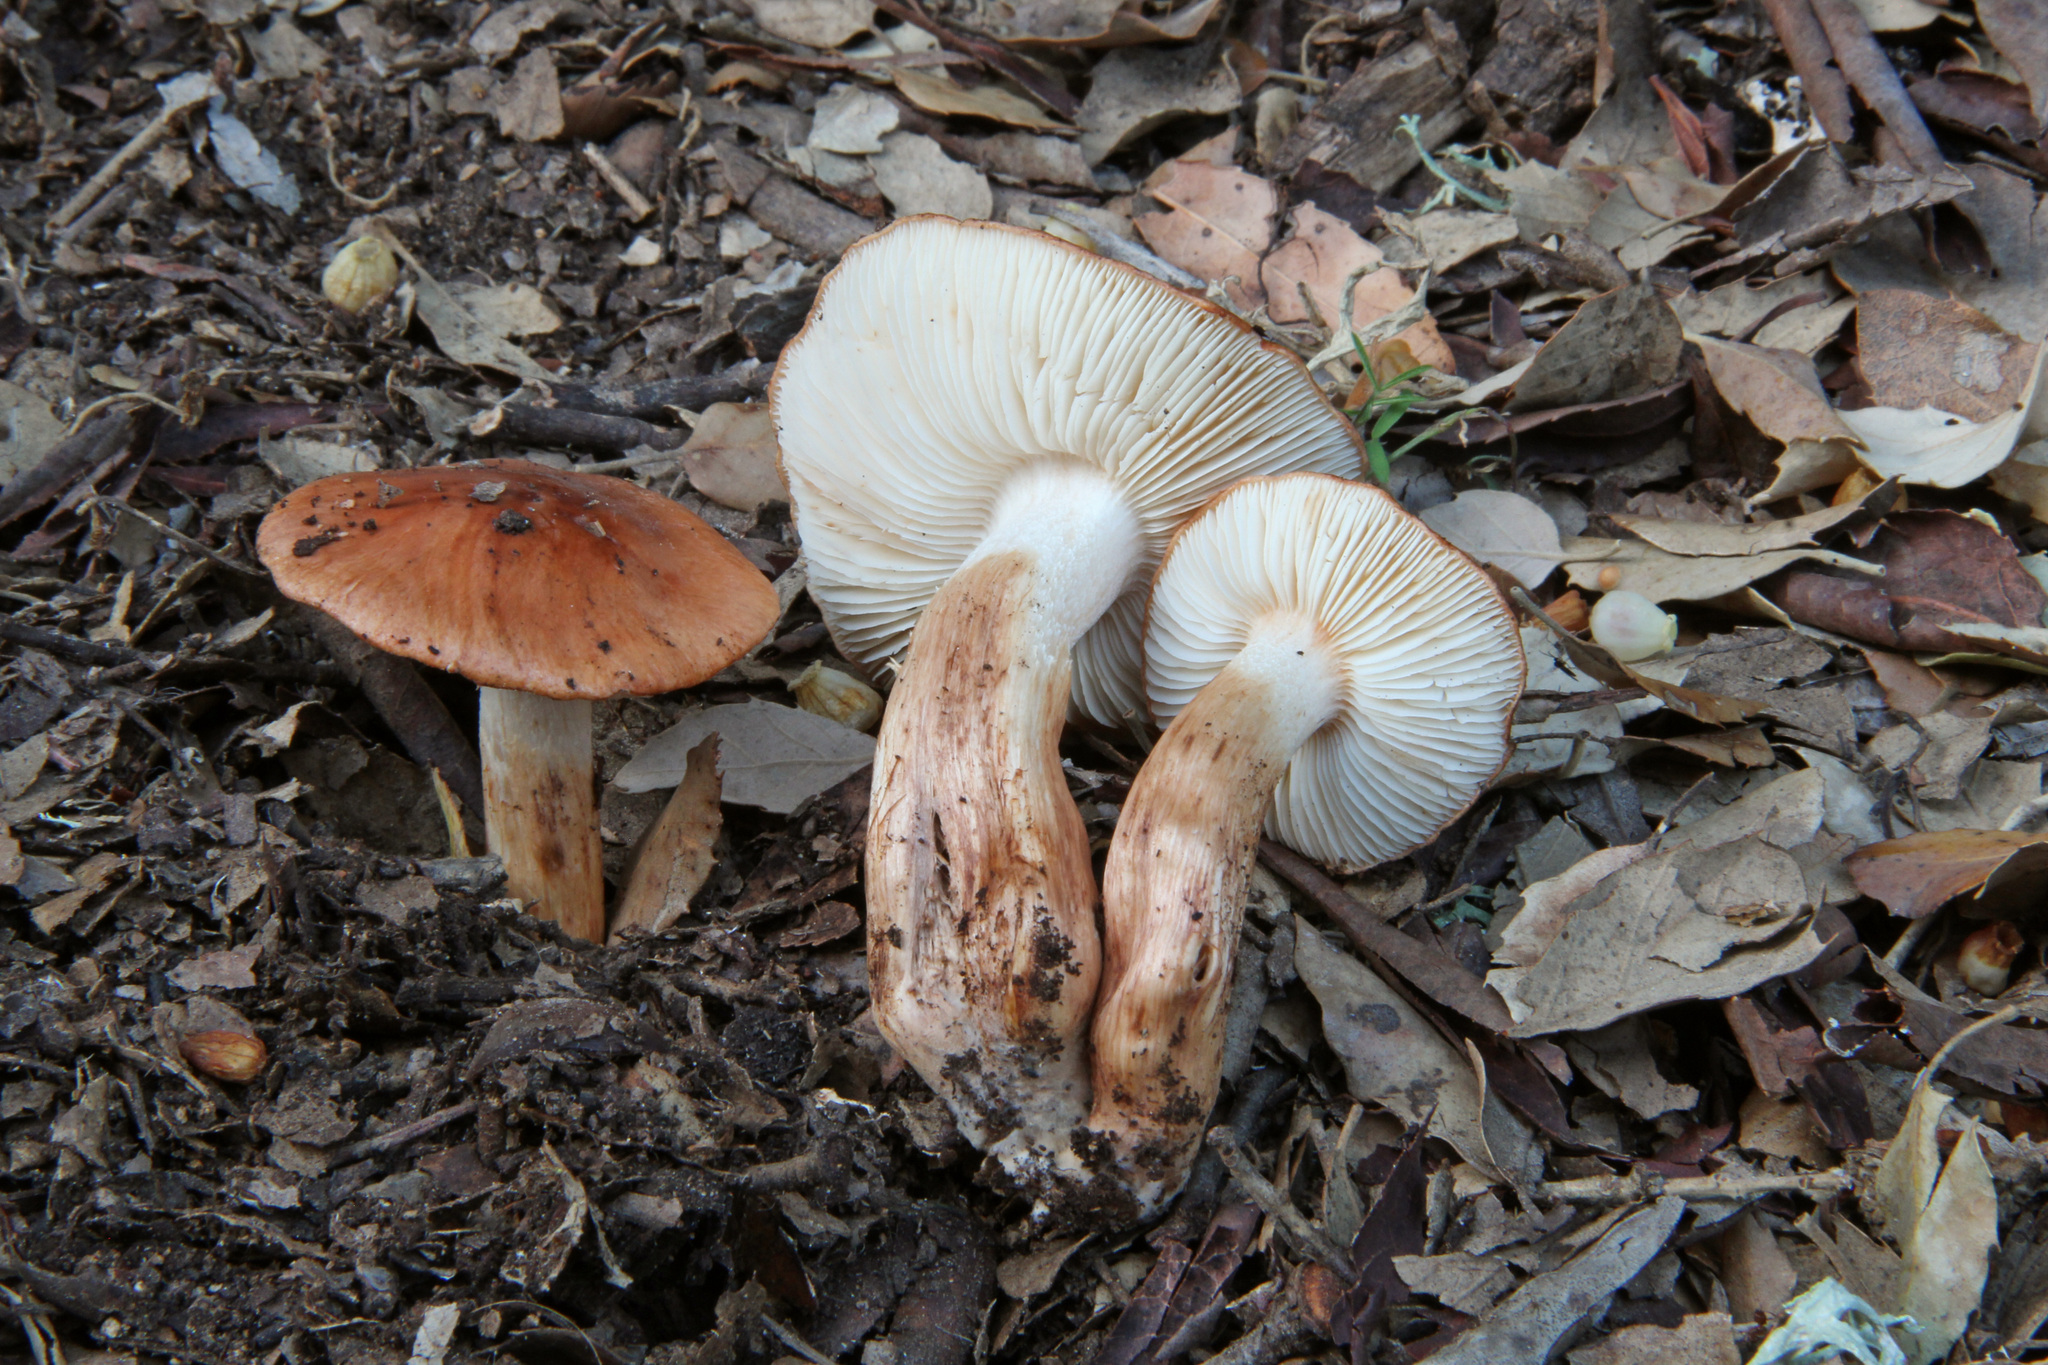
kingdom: Fungi
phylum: Basidiomycota
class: Agaricomycetes
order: Agaricales
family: Tricholomataceae
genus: Tricholoma
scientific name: Tricholoma ustaloides
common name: Charred knight
